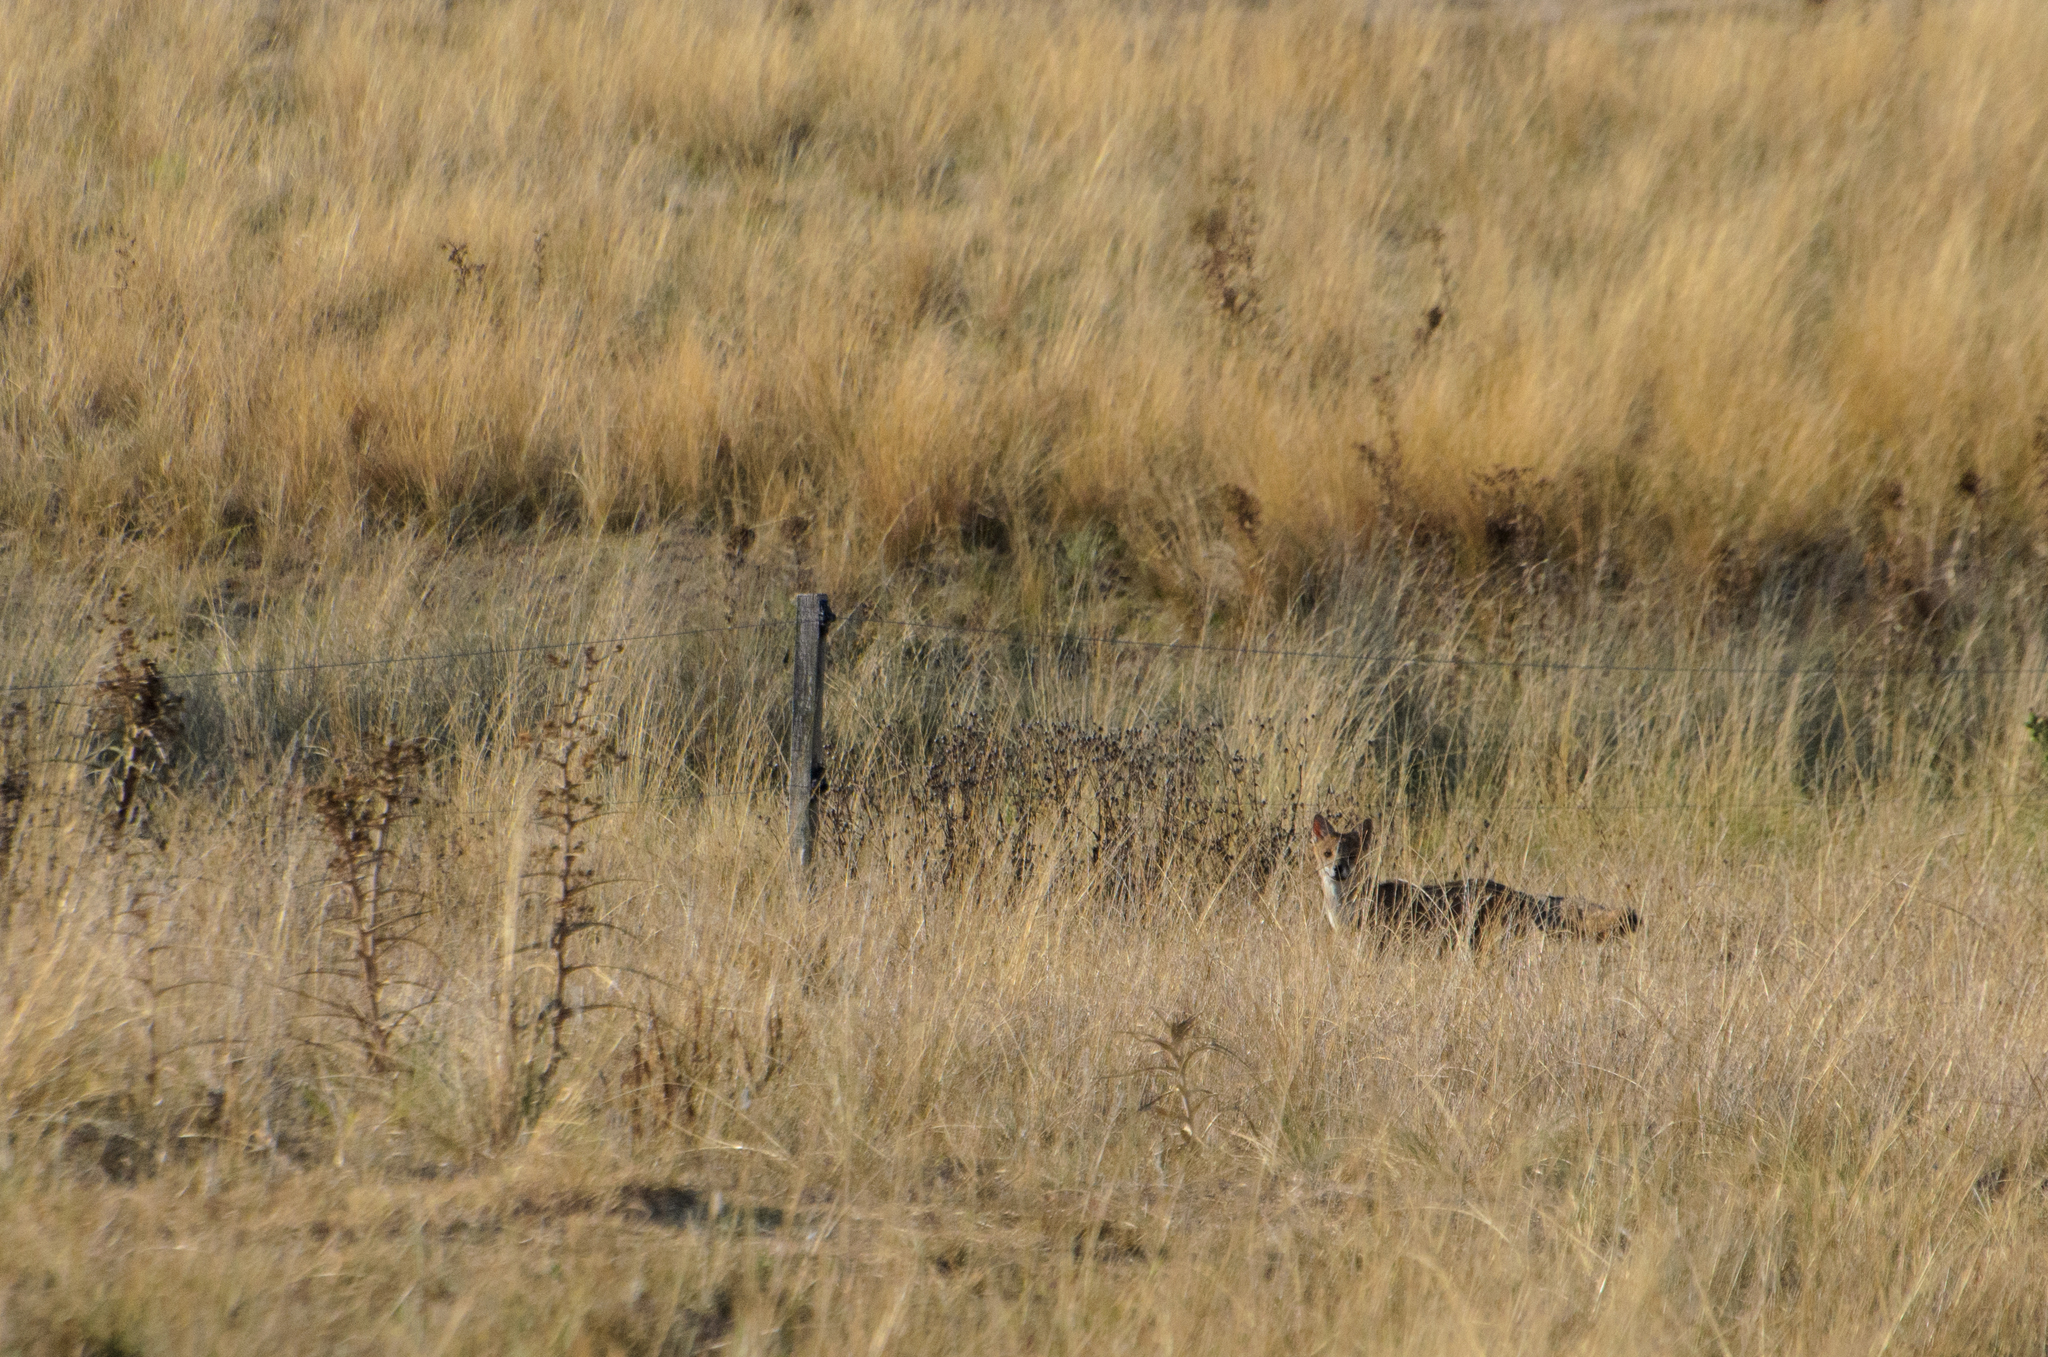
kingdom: Animalia
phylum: Chordata
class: Mammalia
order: Carnivora
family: Canidae
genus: Lycalopex
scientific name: Lycalopex gymnocercus
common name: Pampas fox
